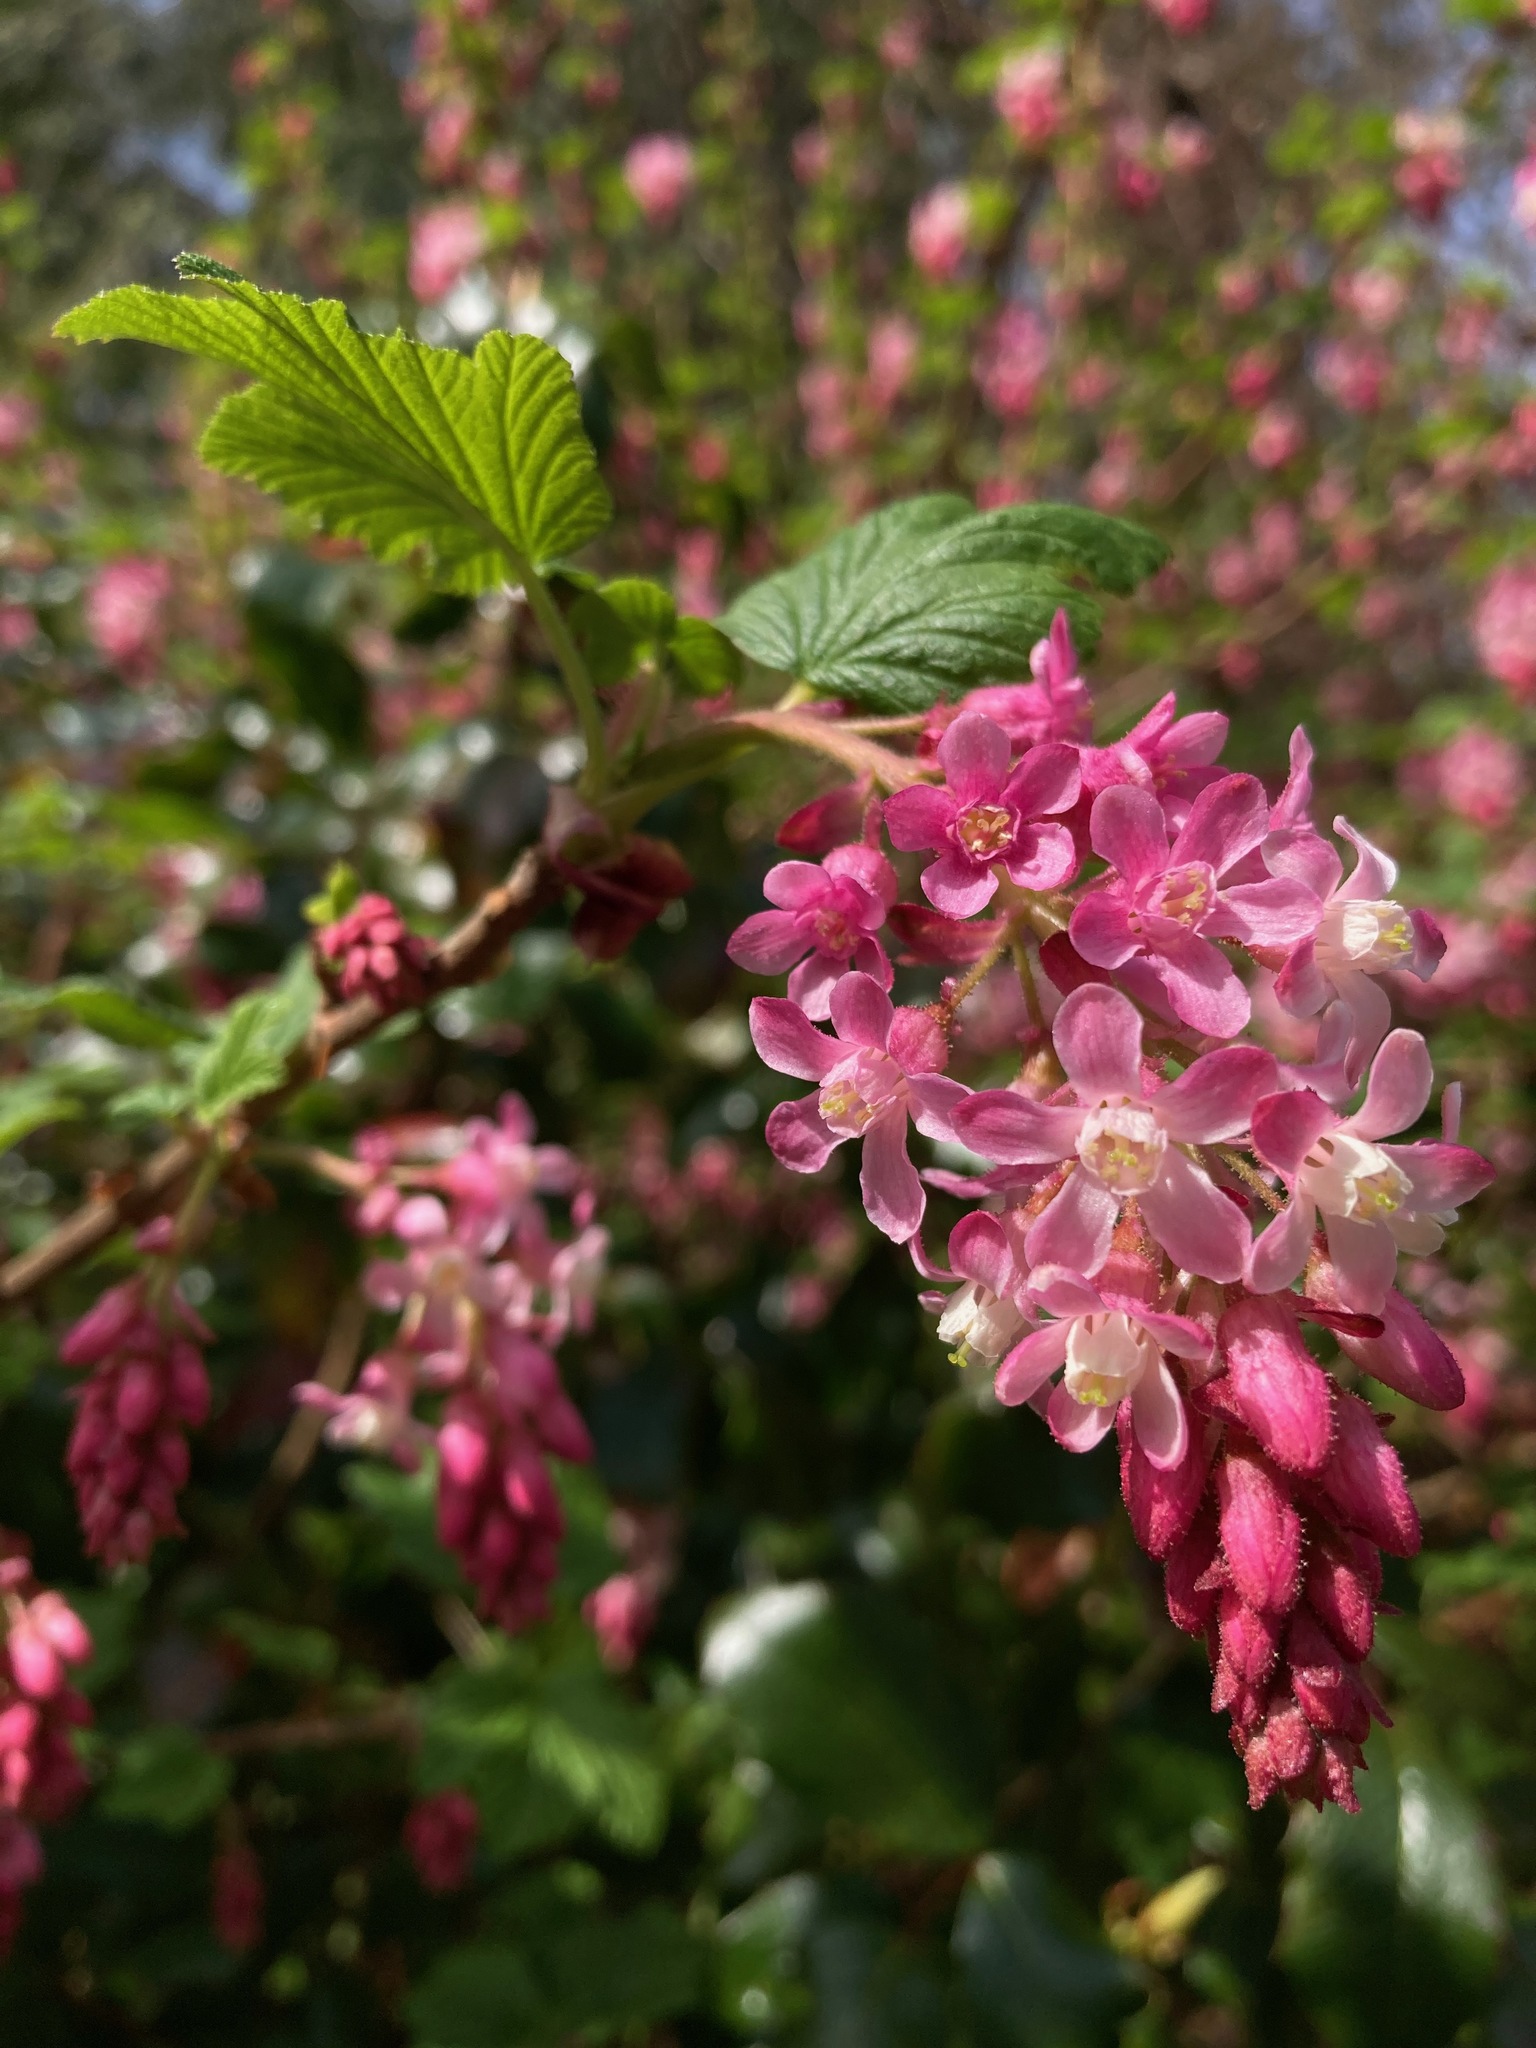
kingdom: Plantae
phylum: Tracheophyta
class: Magnoliopsida
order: Saxifragales
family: Grossulariaceae
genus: Ribes
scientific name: Ribes sanguineum
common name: Flowering currant
